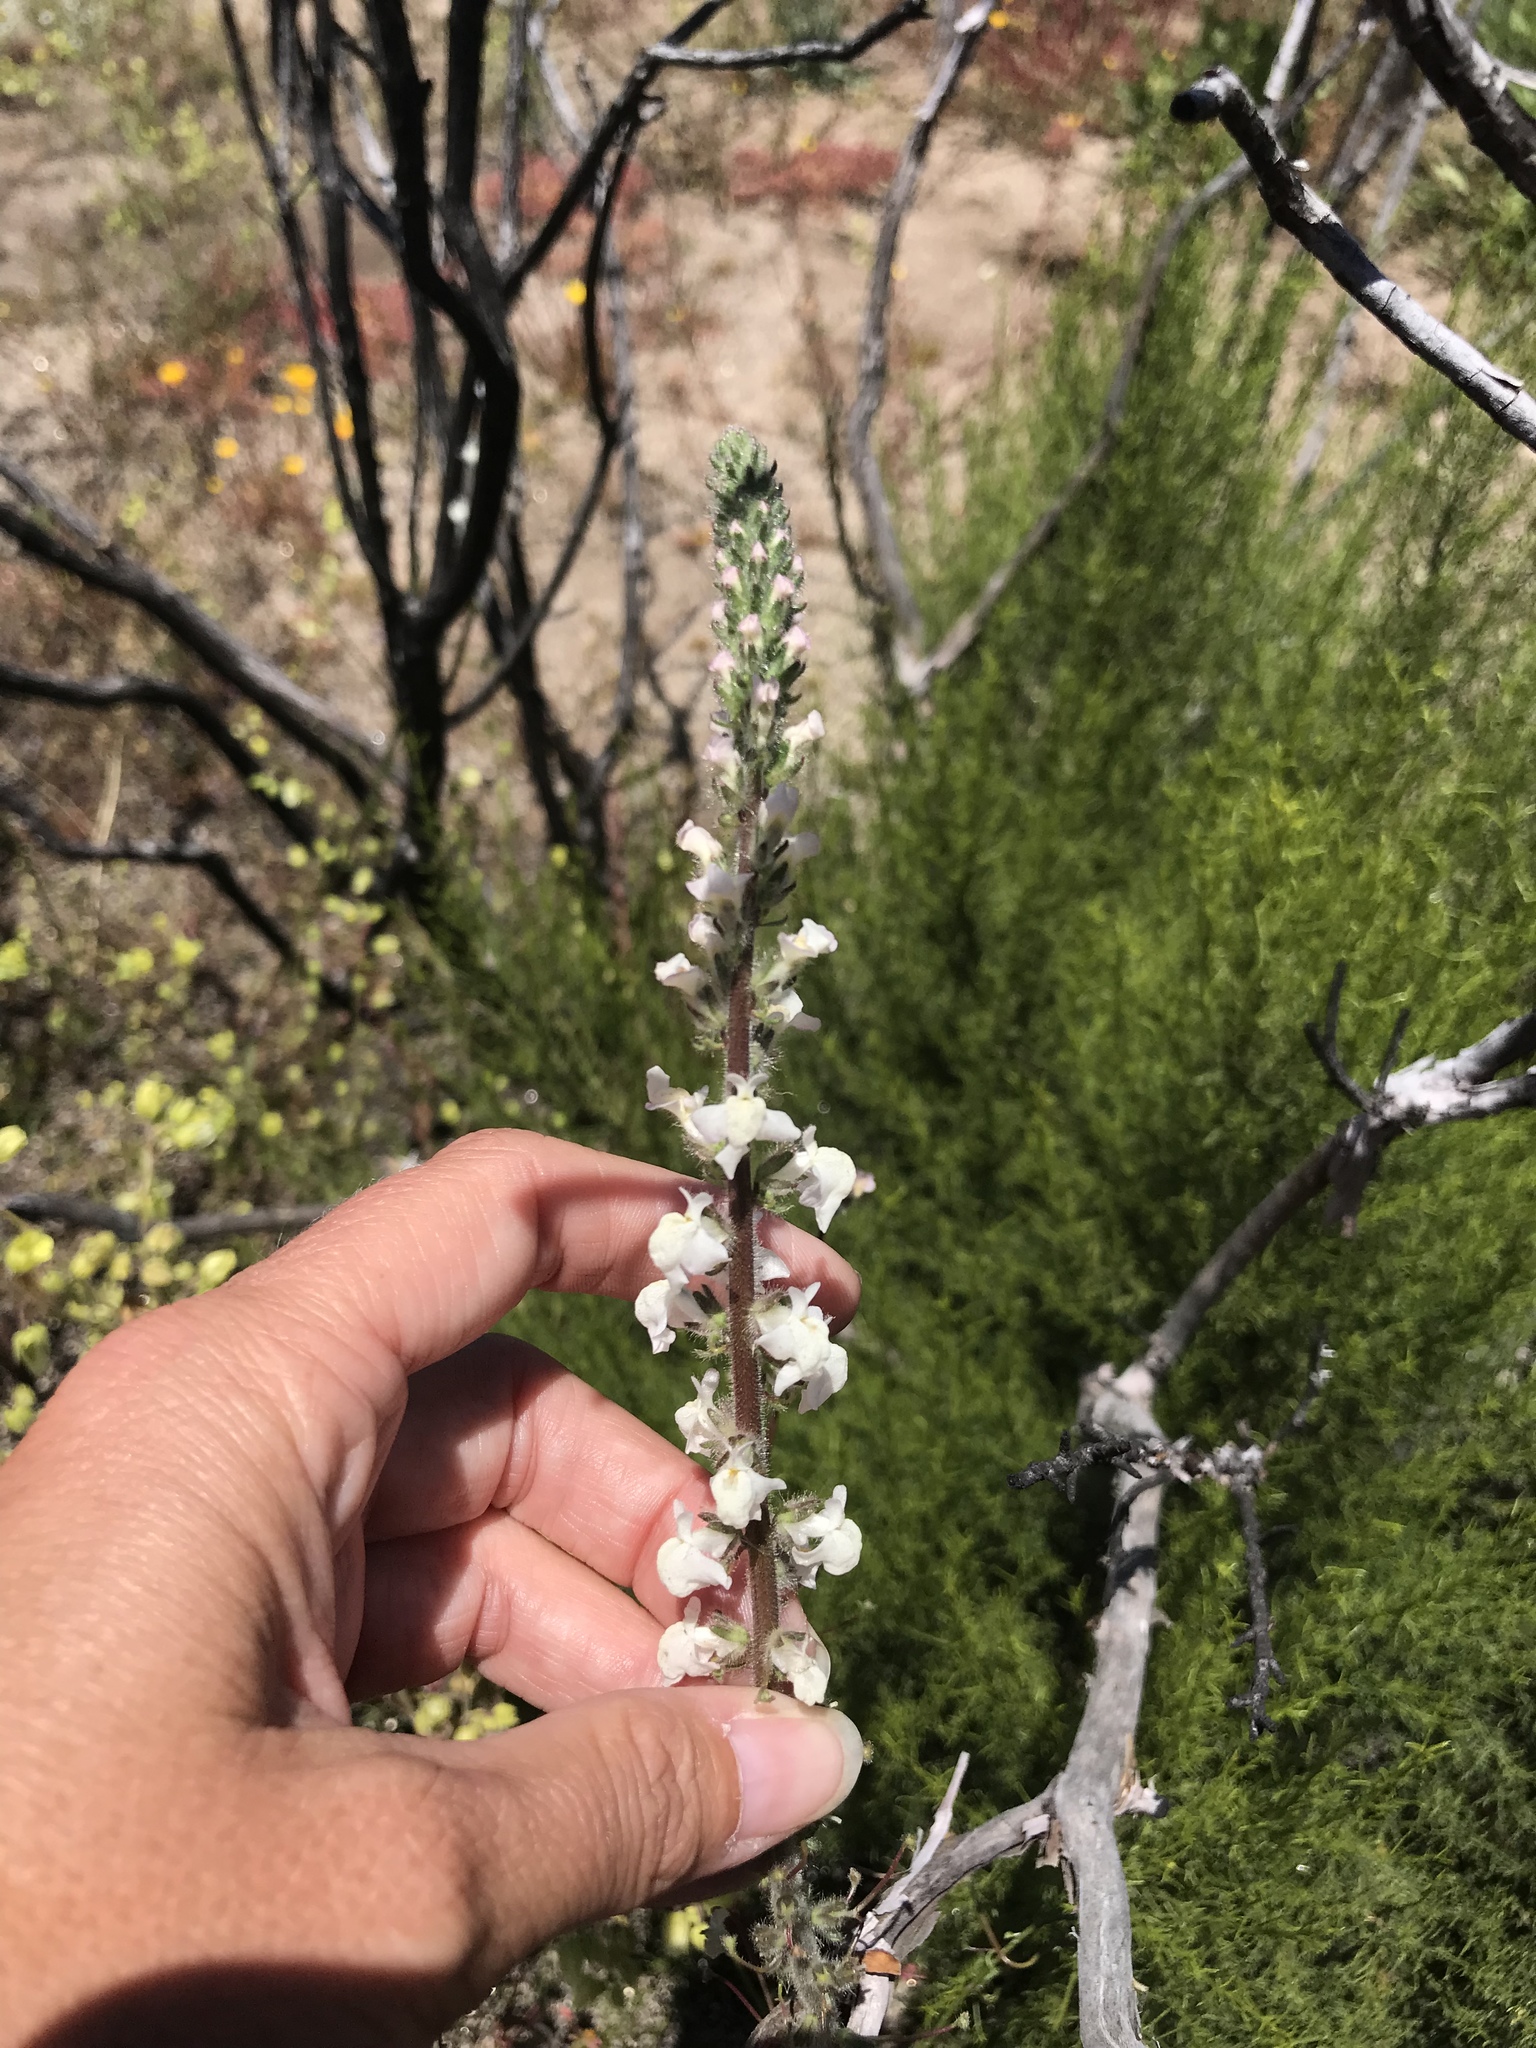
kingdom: Plantae
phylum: Tracheophyta
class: Magnoliopsida
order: Lamiales
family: Plantaginaceae
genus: Sairocarpus
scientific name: Sairocarpus coulterianus
